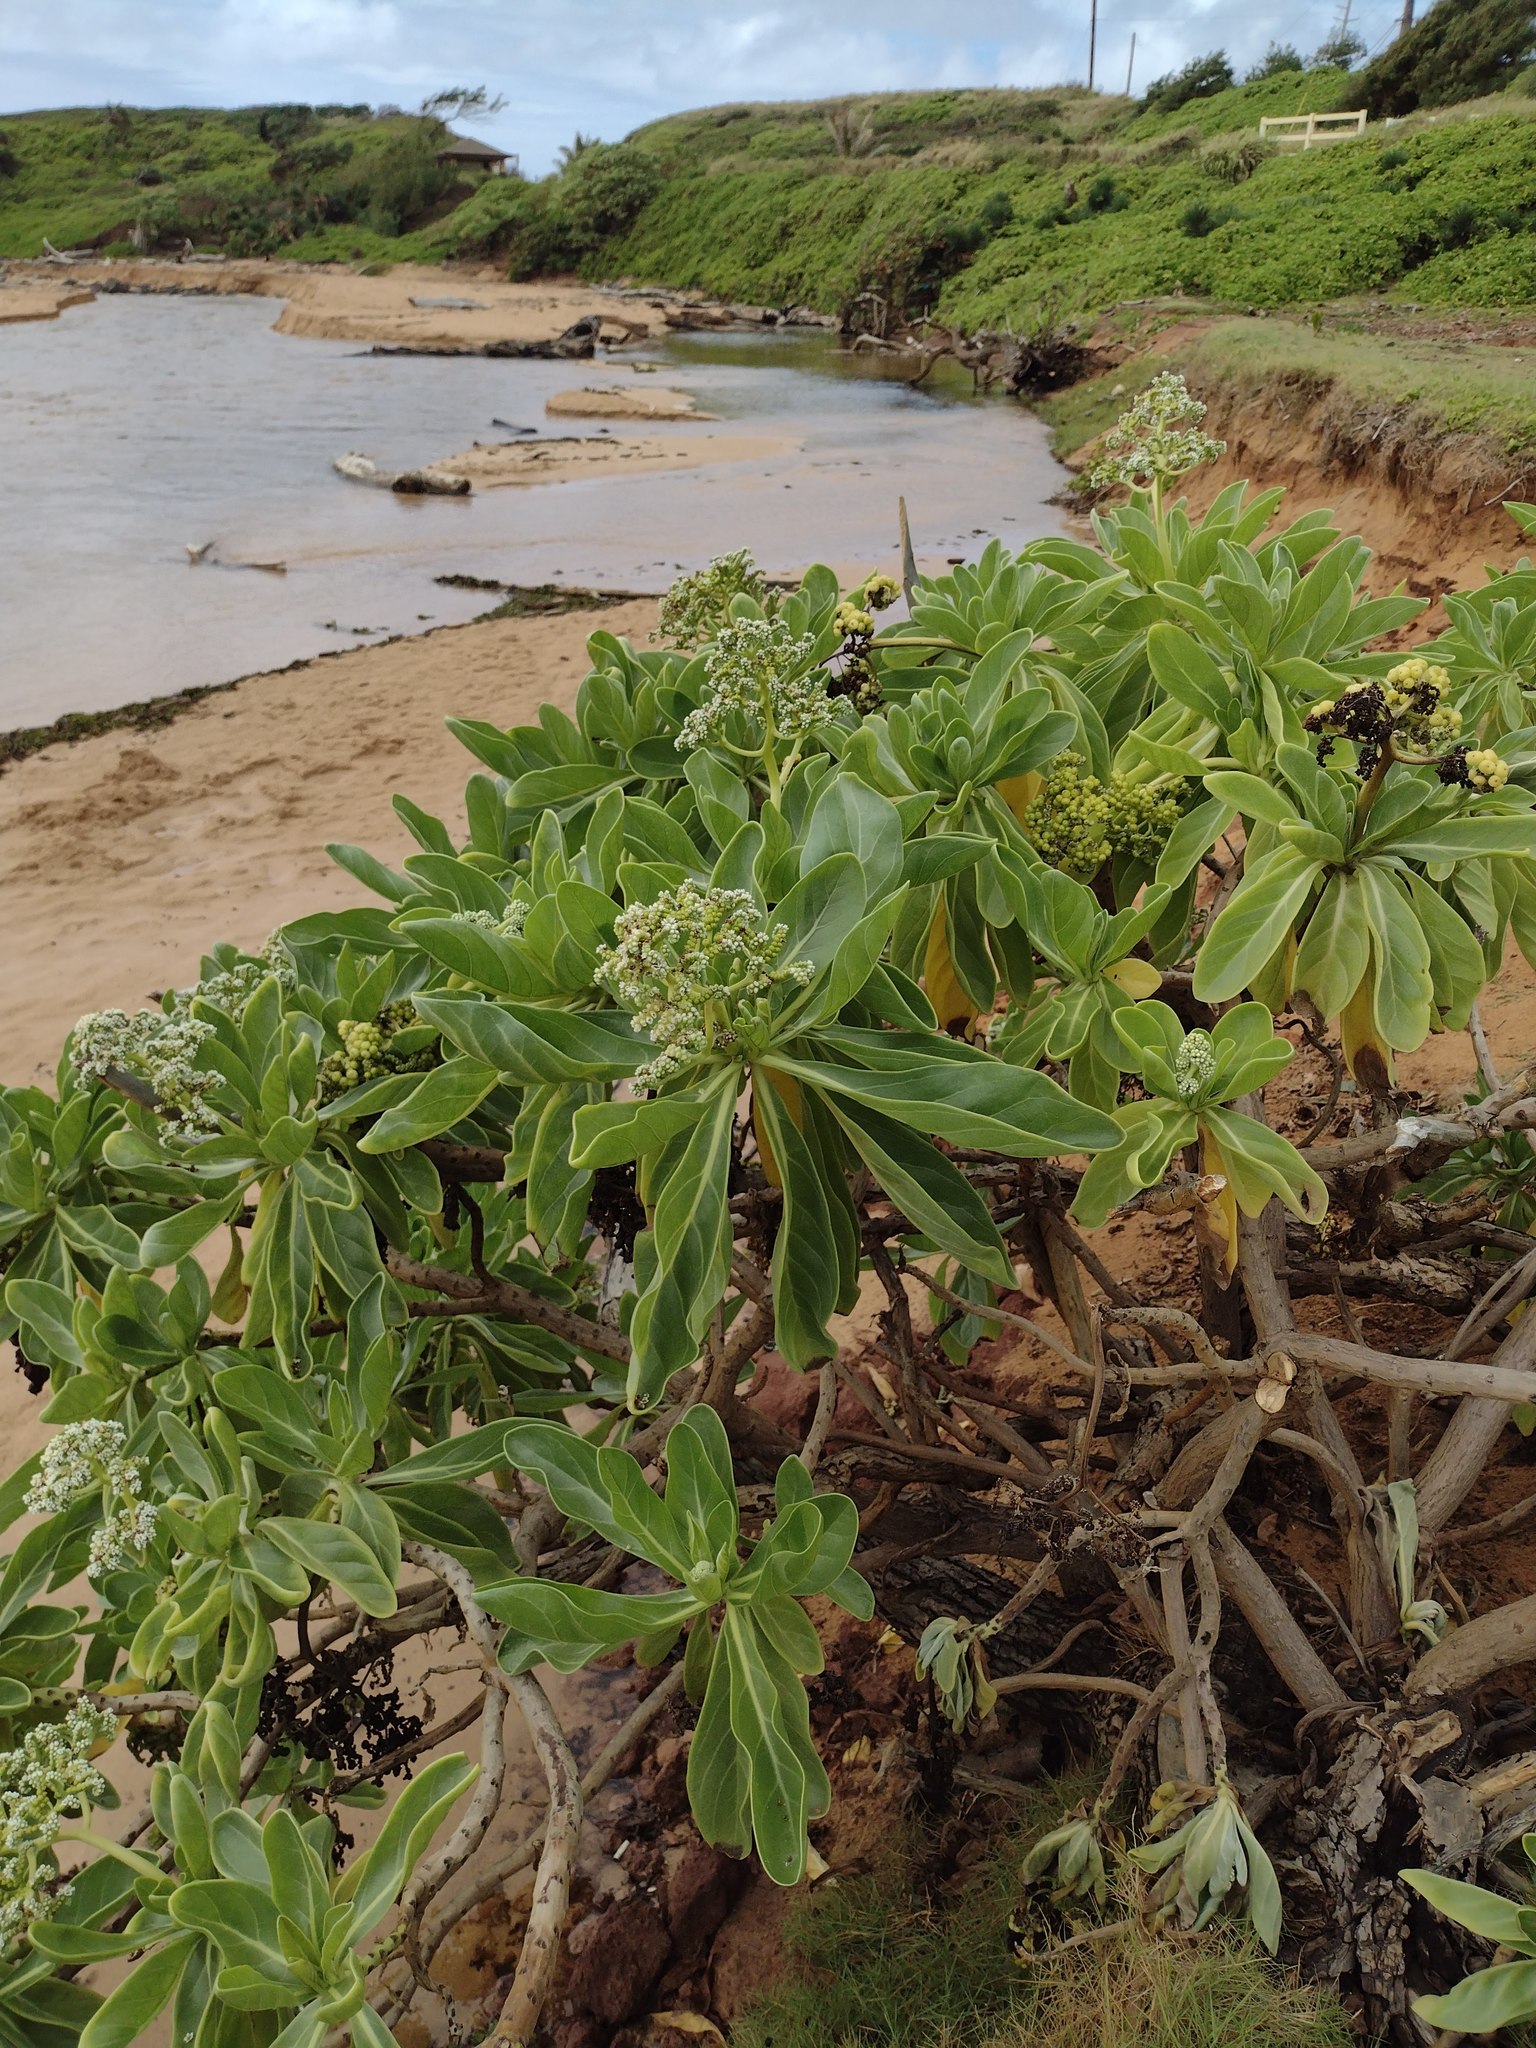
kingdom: Plantae
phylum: Tracheophyta
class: Magnoliopsida
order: Boraginales
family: Heliotropiaceae
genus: Heliotropium
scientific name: Heliotropium velutinum
